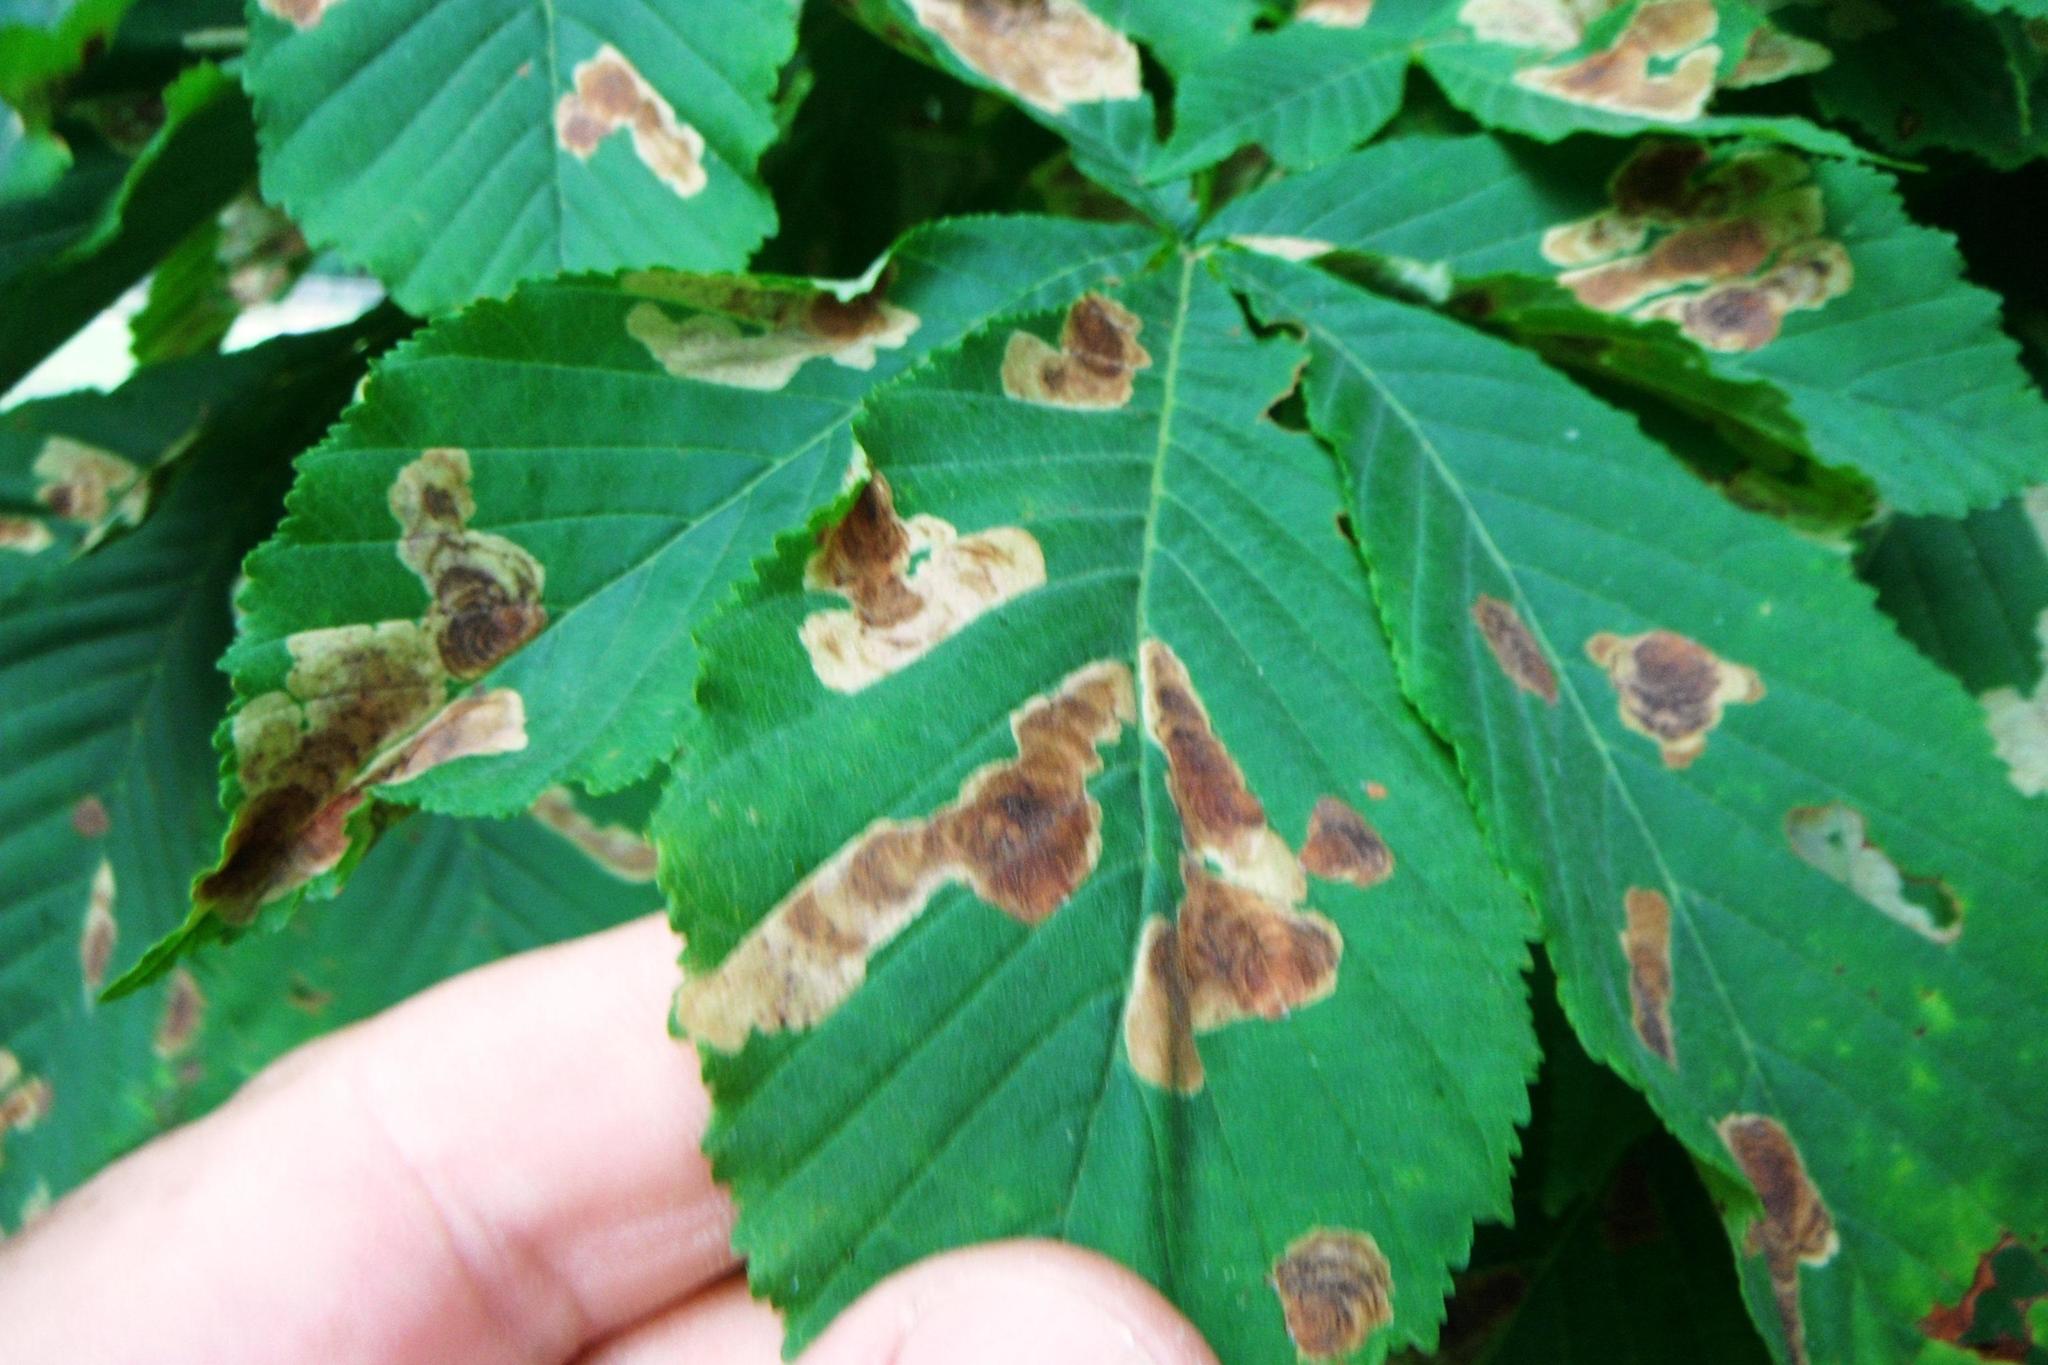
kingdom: Plantae
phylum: Tracheophyta
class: Magnoliopsida
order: Sapindales
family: Sapindaceae
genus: Aesculus
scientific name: Aesculus hippocastanum
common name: Horse-chestnut
